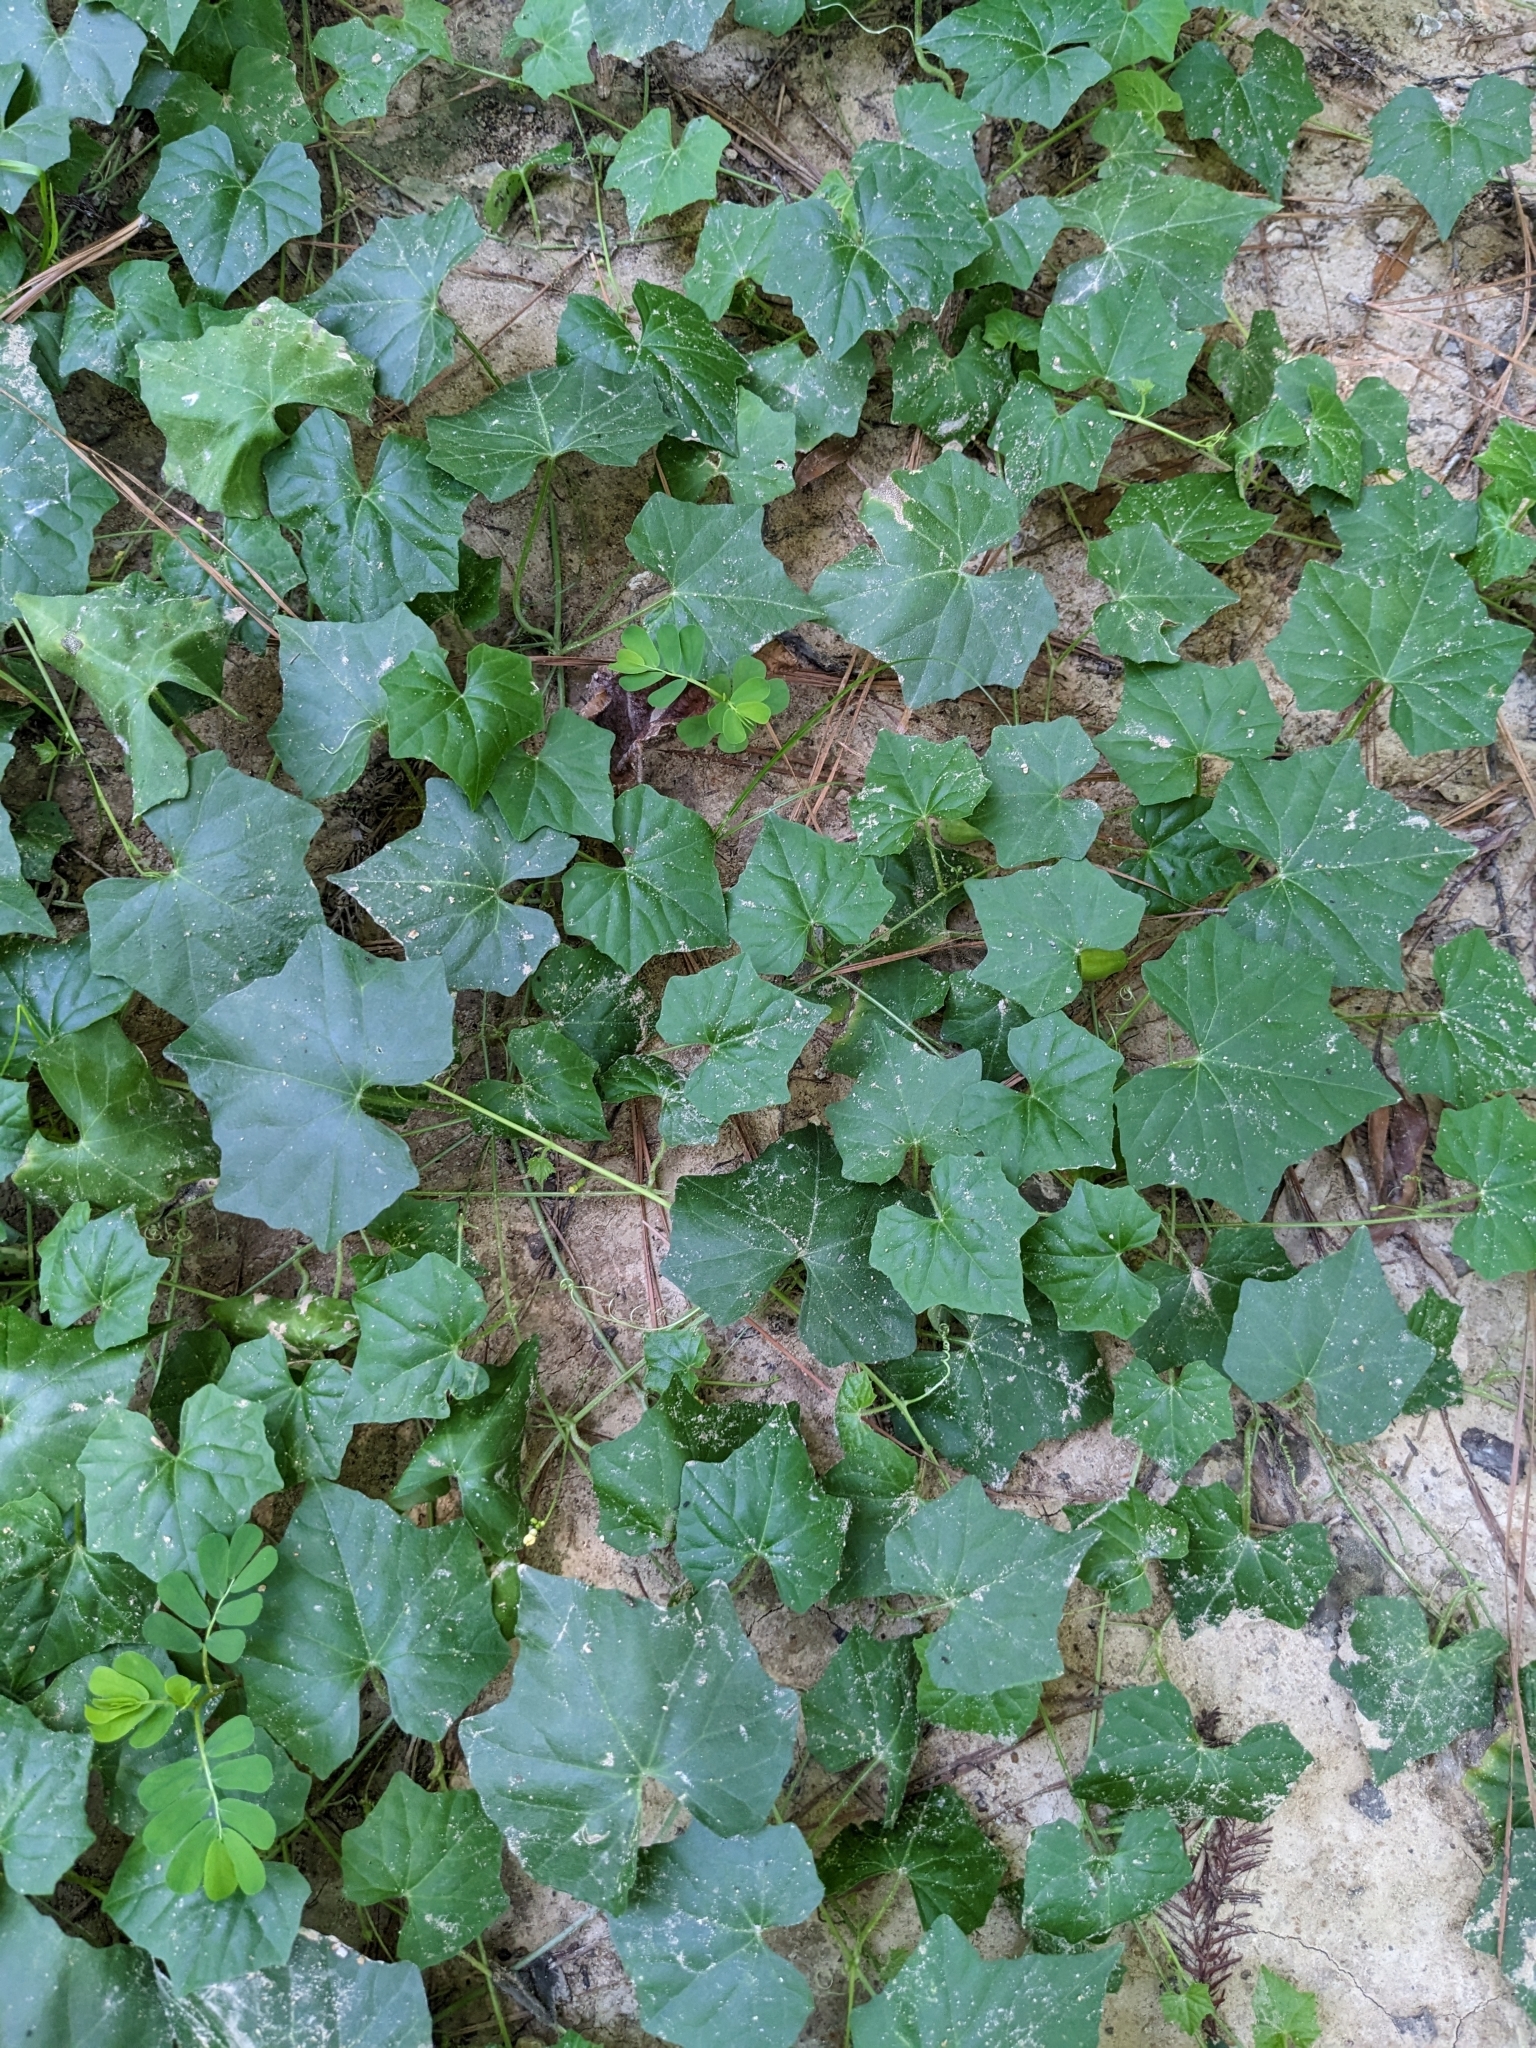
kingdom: Plantae
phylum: Tracheophyta
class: Magnoliopsida
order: Cucurbitales
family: Cucurbitaceae
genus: Melothria
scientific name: Melothria pendula
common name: Creeping-cucumber
